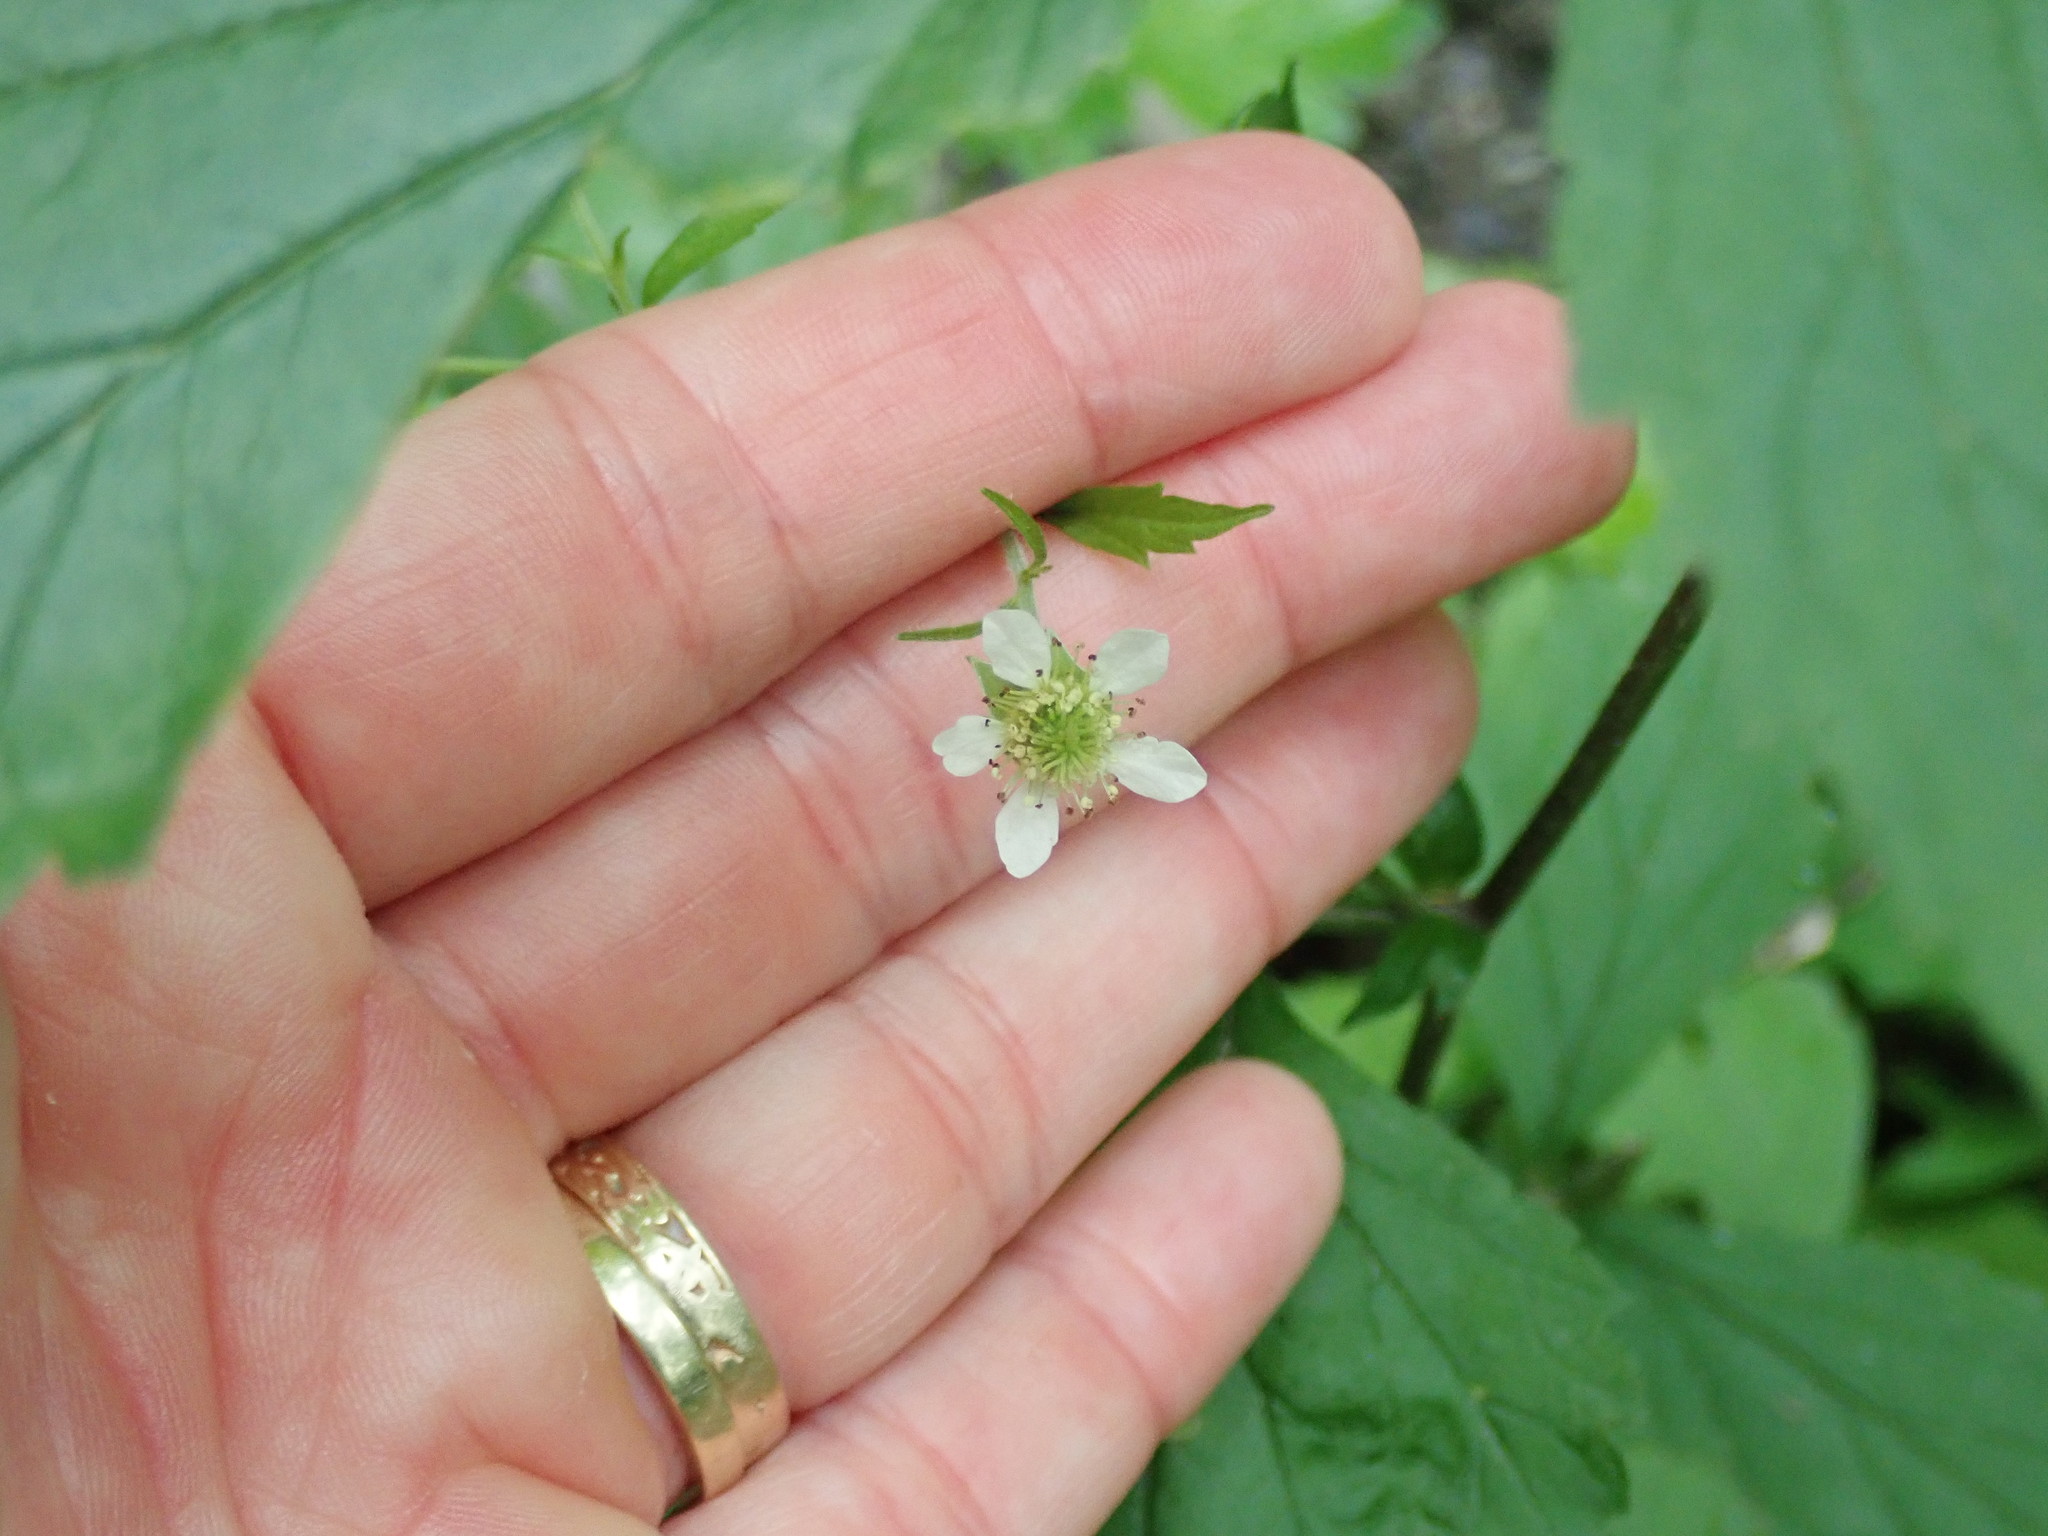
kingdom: Plantae
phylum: Tracheophyta
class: Magnoliopsida
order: Rosales
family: Rosaceae
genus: Geum
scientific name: Geum canadense
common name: White avens
